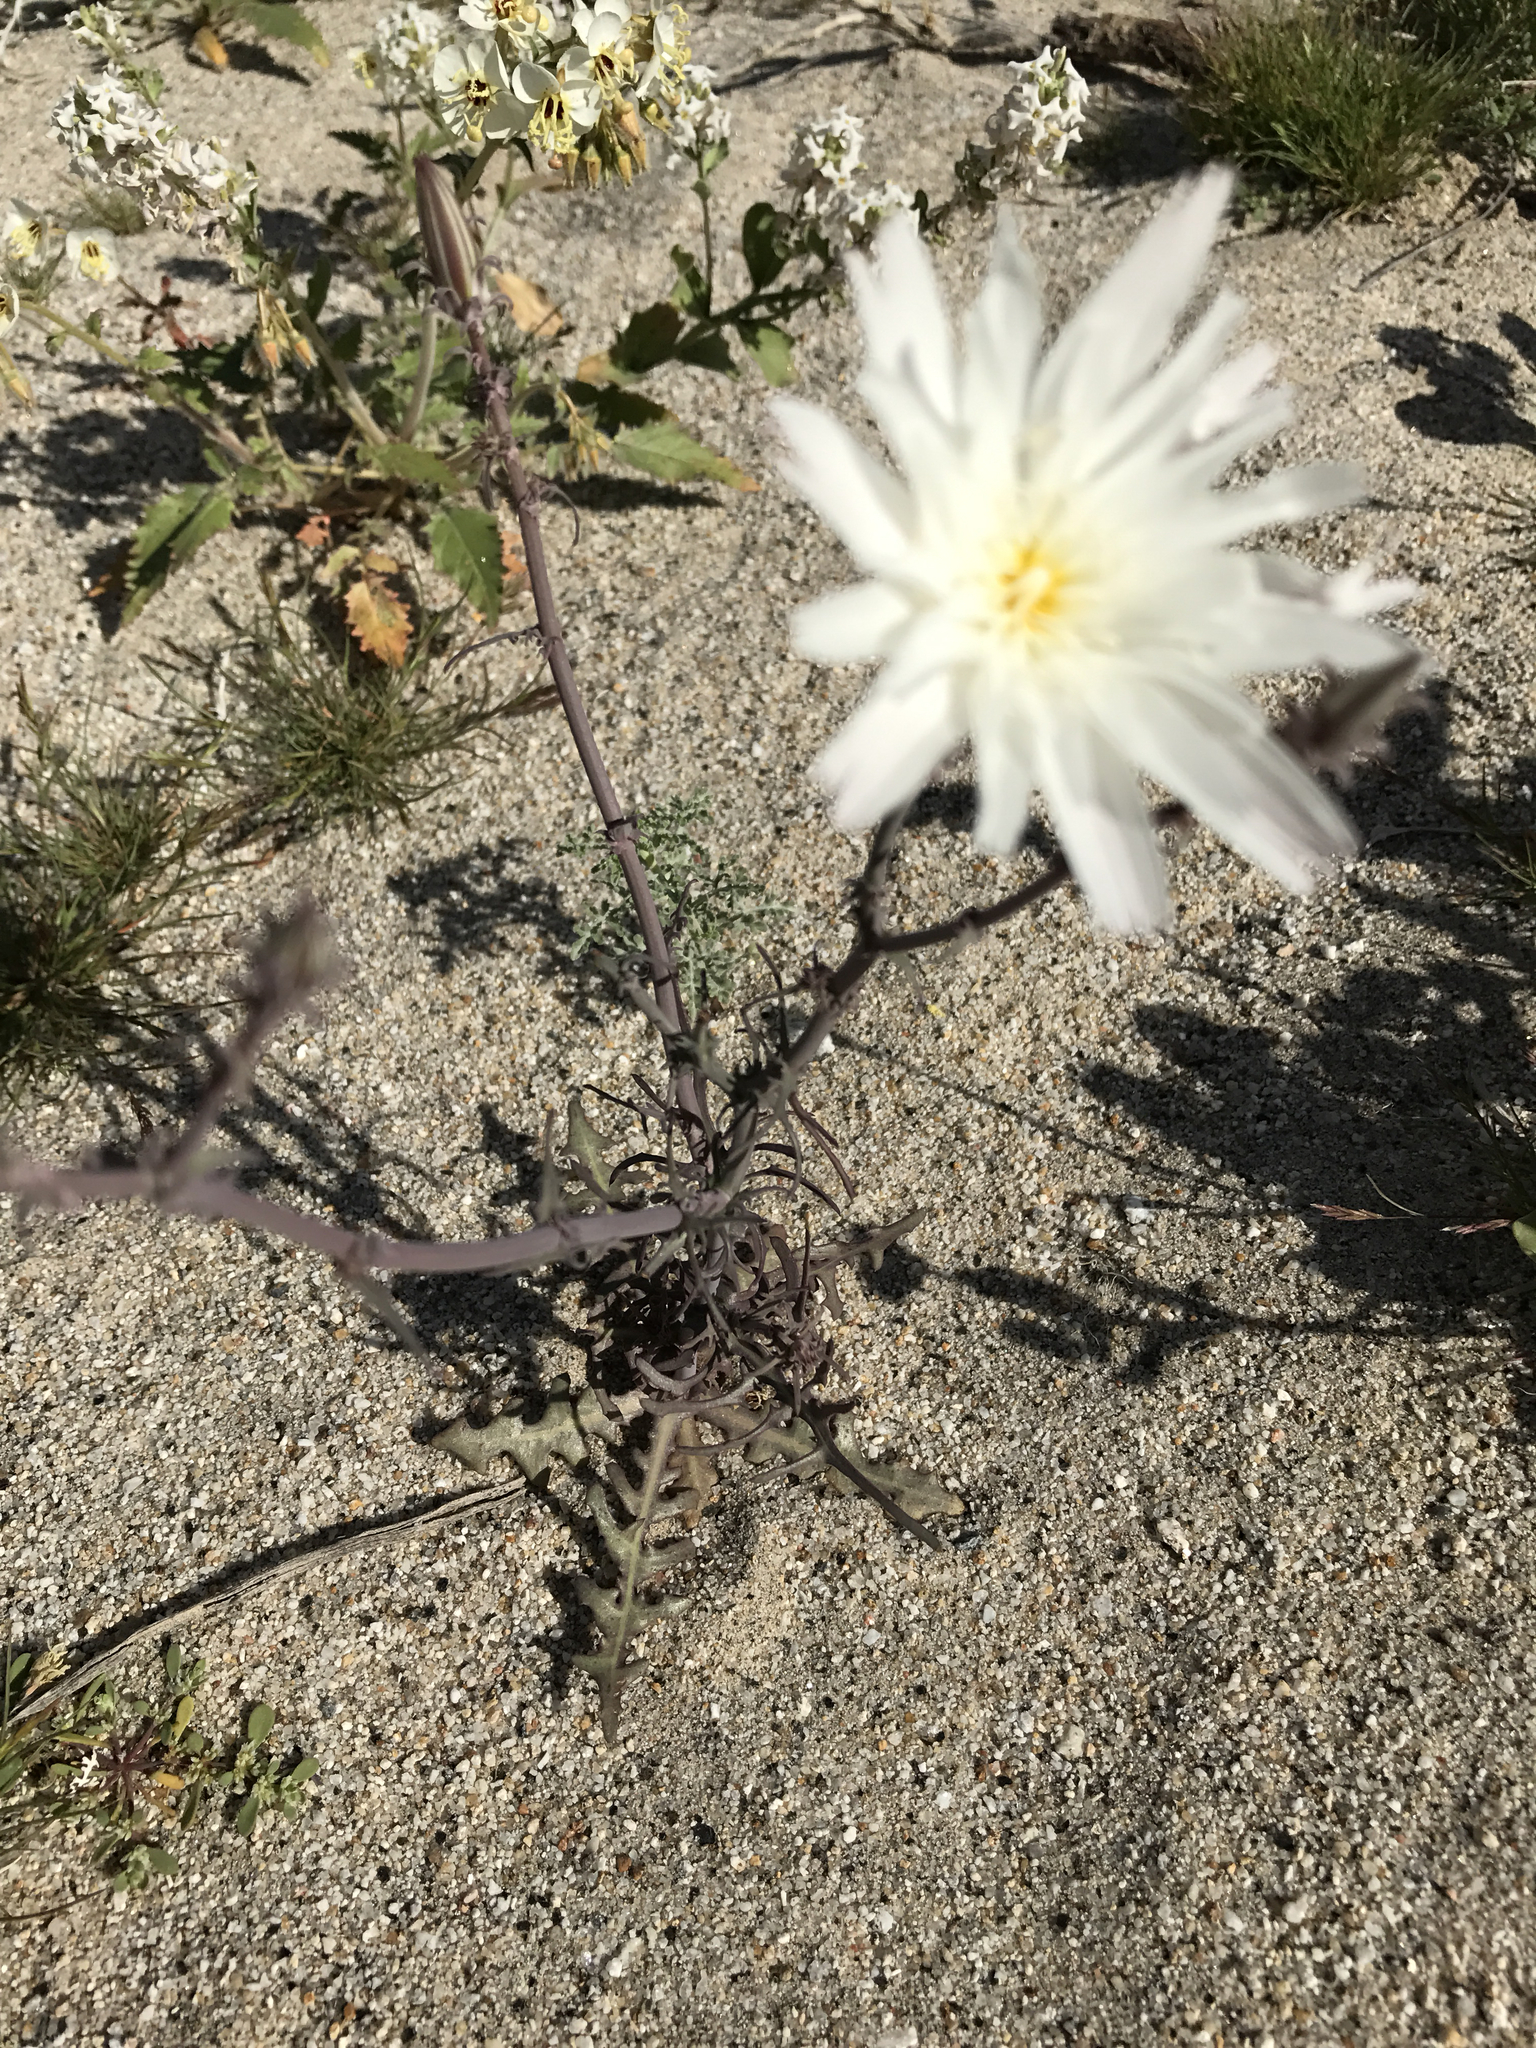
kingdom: Plantae
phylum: Tracheophyta
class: Magnoliopsida
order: Asterales
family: Asteraceae
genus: Rafinesquia
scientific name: Rafinesquia neomexicana
